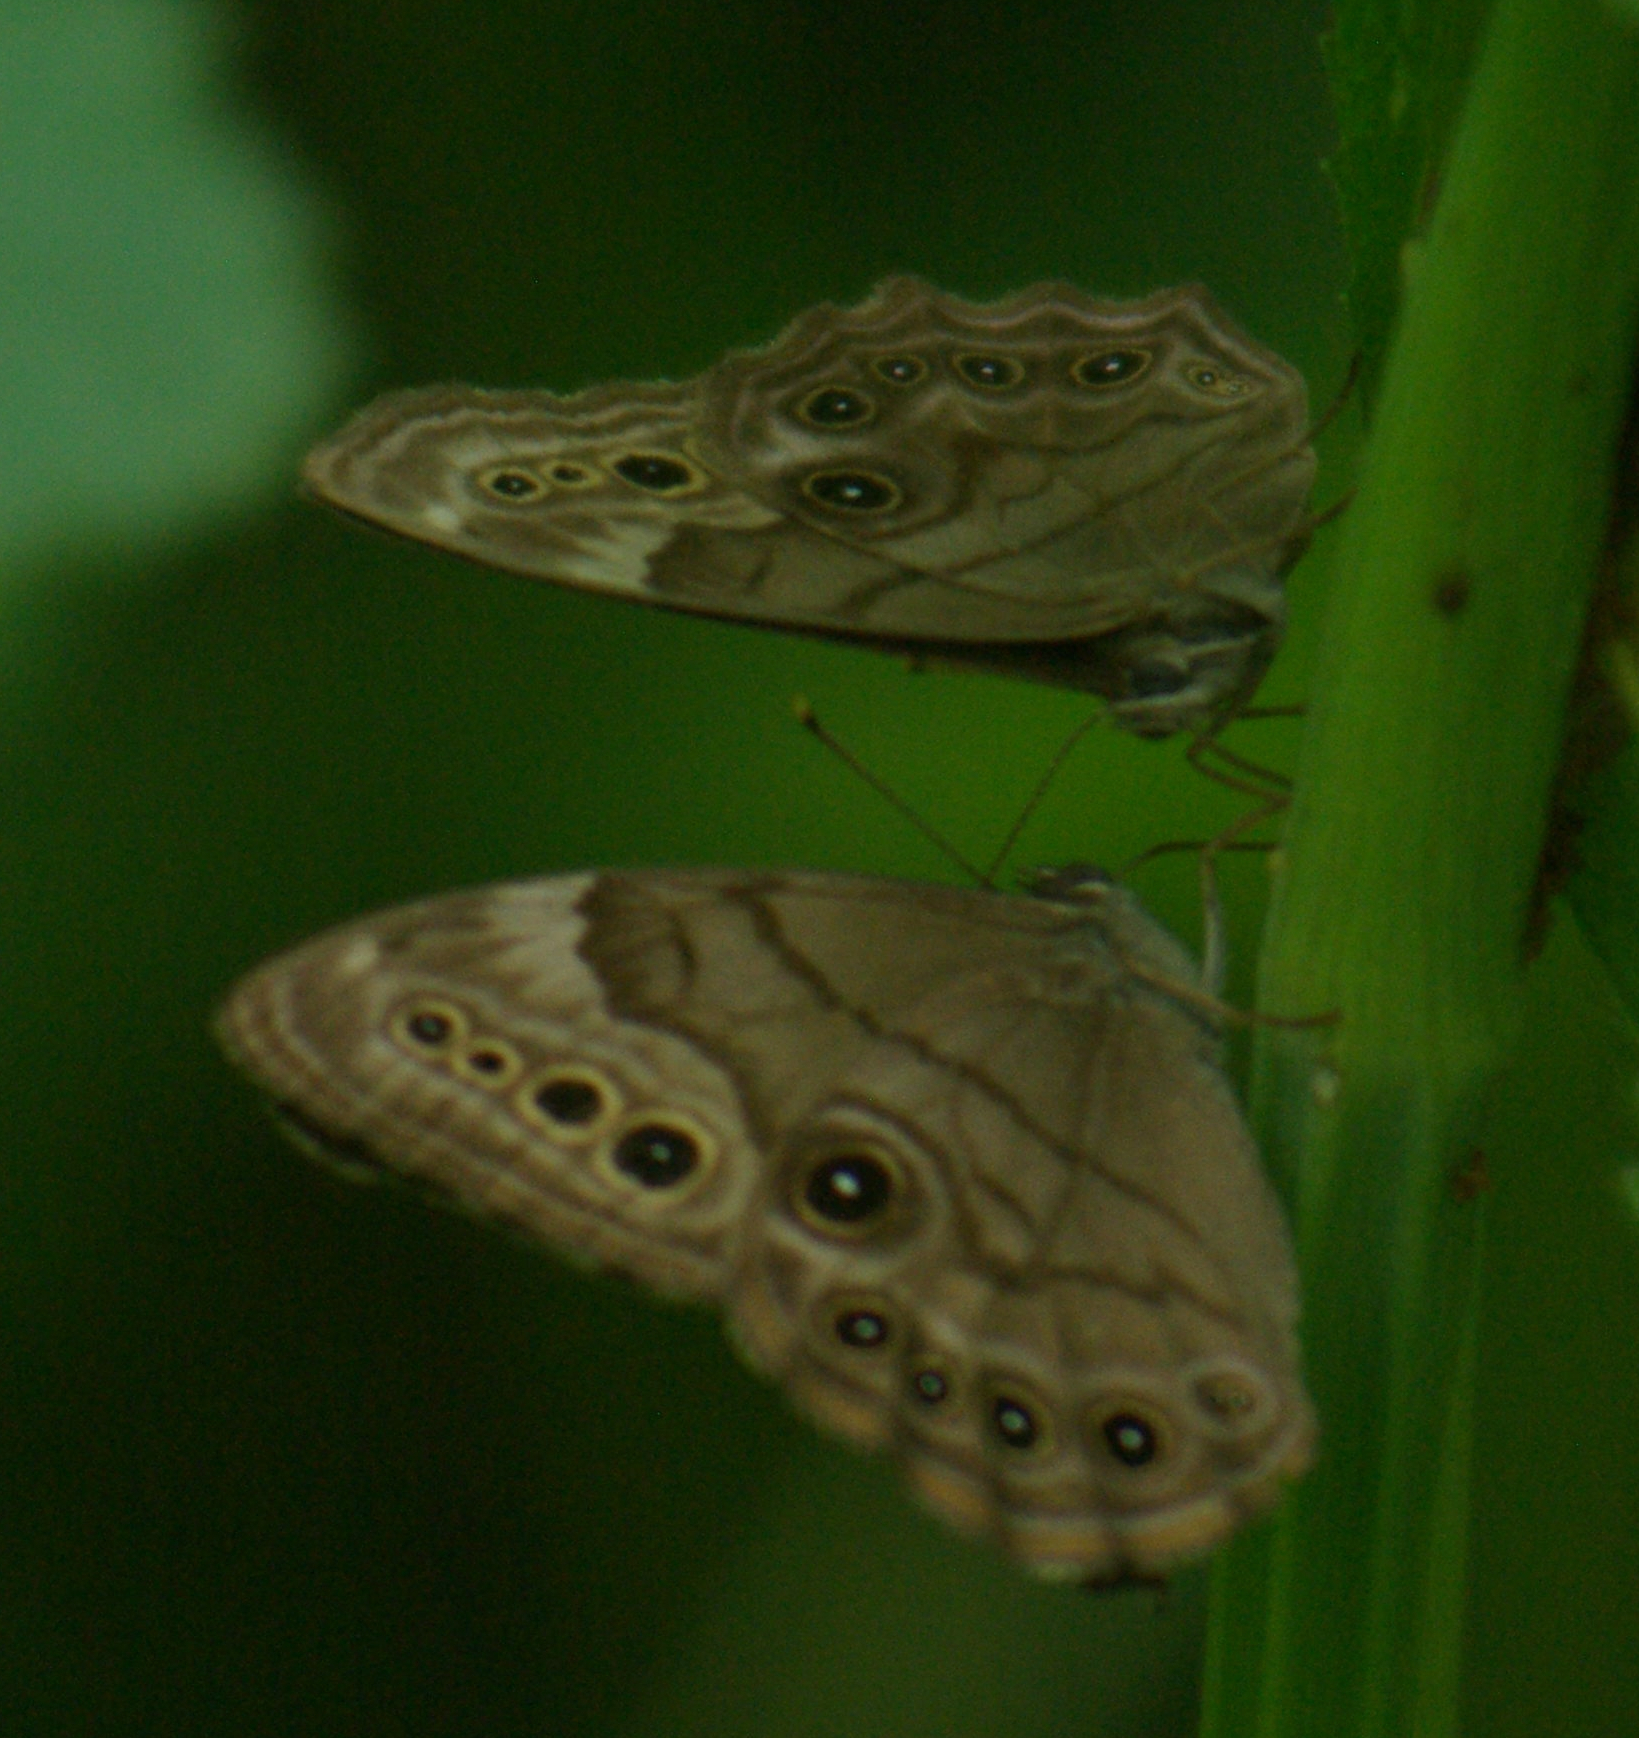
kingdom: Animalia
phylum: Arthropoda
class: Insecta
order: Lepidoptera
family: Nymphalidae
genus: Lethe
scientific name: Lethe anthedon
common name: Northern pearly-eye
